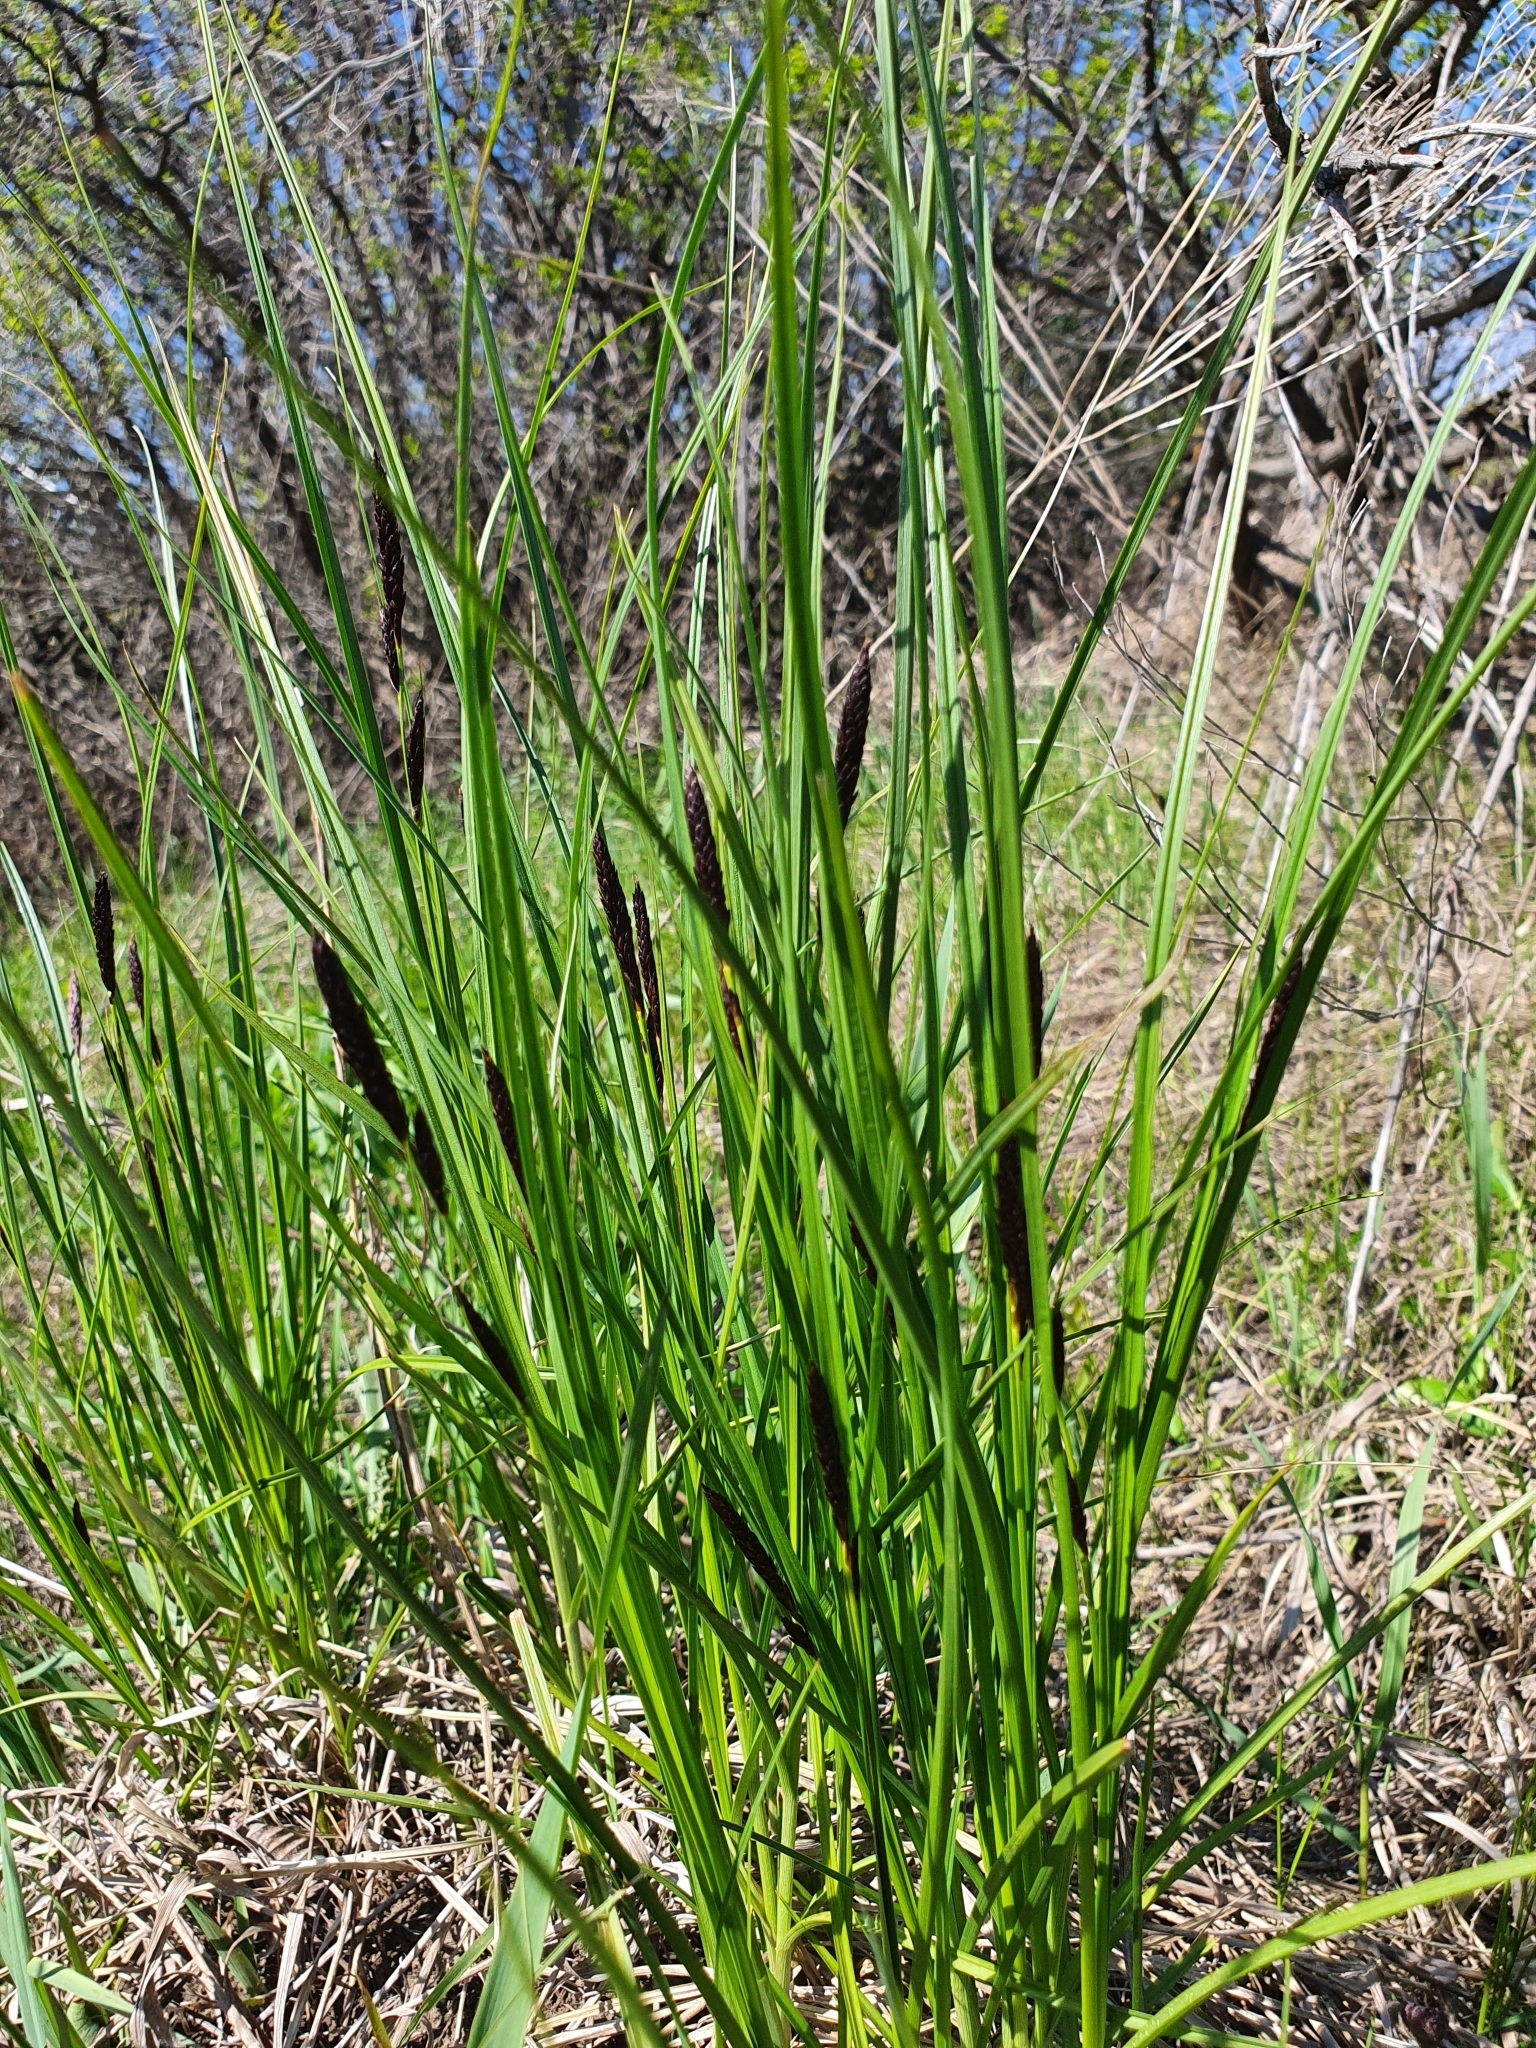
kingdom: Plantae
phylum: Tracheophyta
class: Liliopsida
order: Poales
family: Cyperaceae
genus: Carex
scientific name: Carex melanostachya
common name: Black-spiked sedge
